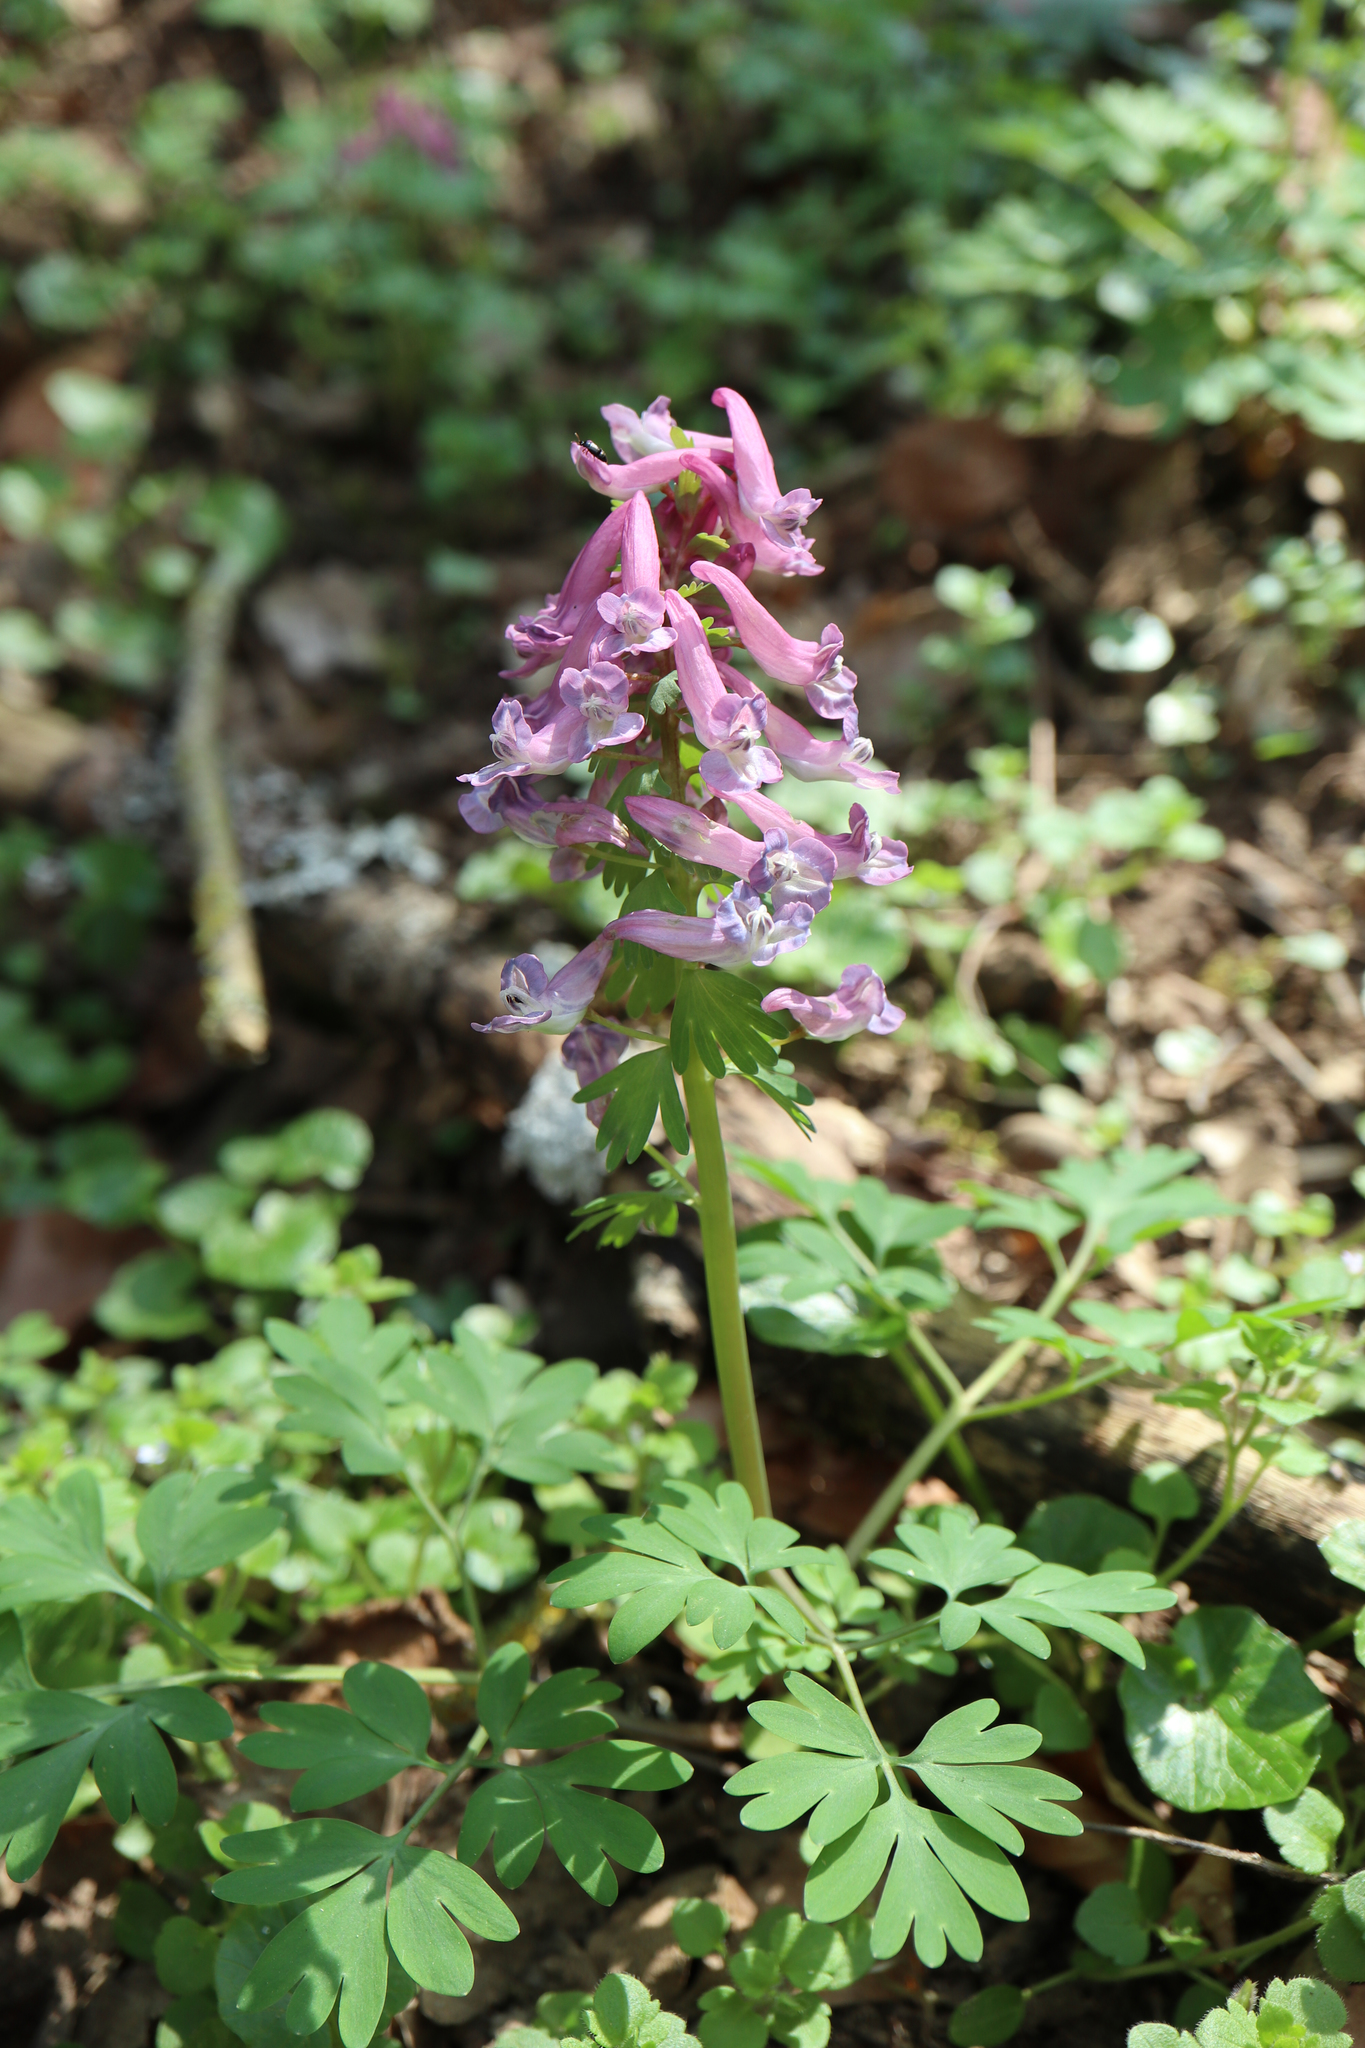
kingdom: Plantae
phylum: Tracheophyta
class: Magnoliopsida
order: Ranunculales
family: Papaveraceae
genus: Corydalis
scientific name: Corydalis solida
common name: Bird-in-a-bush
